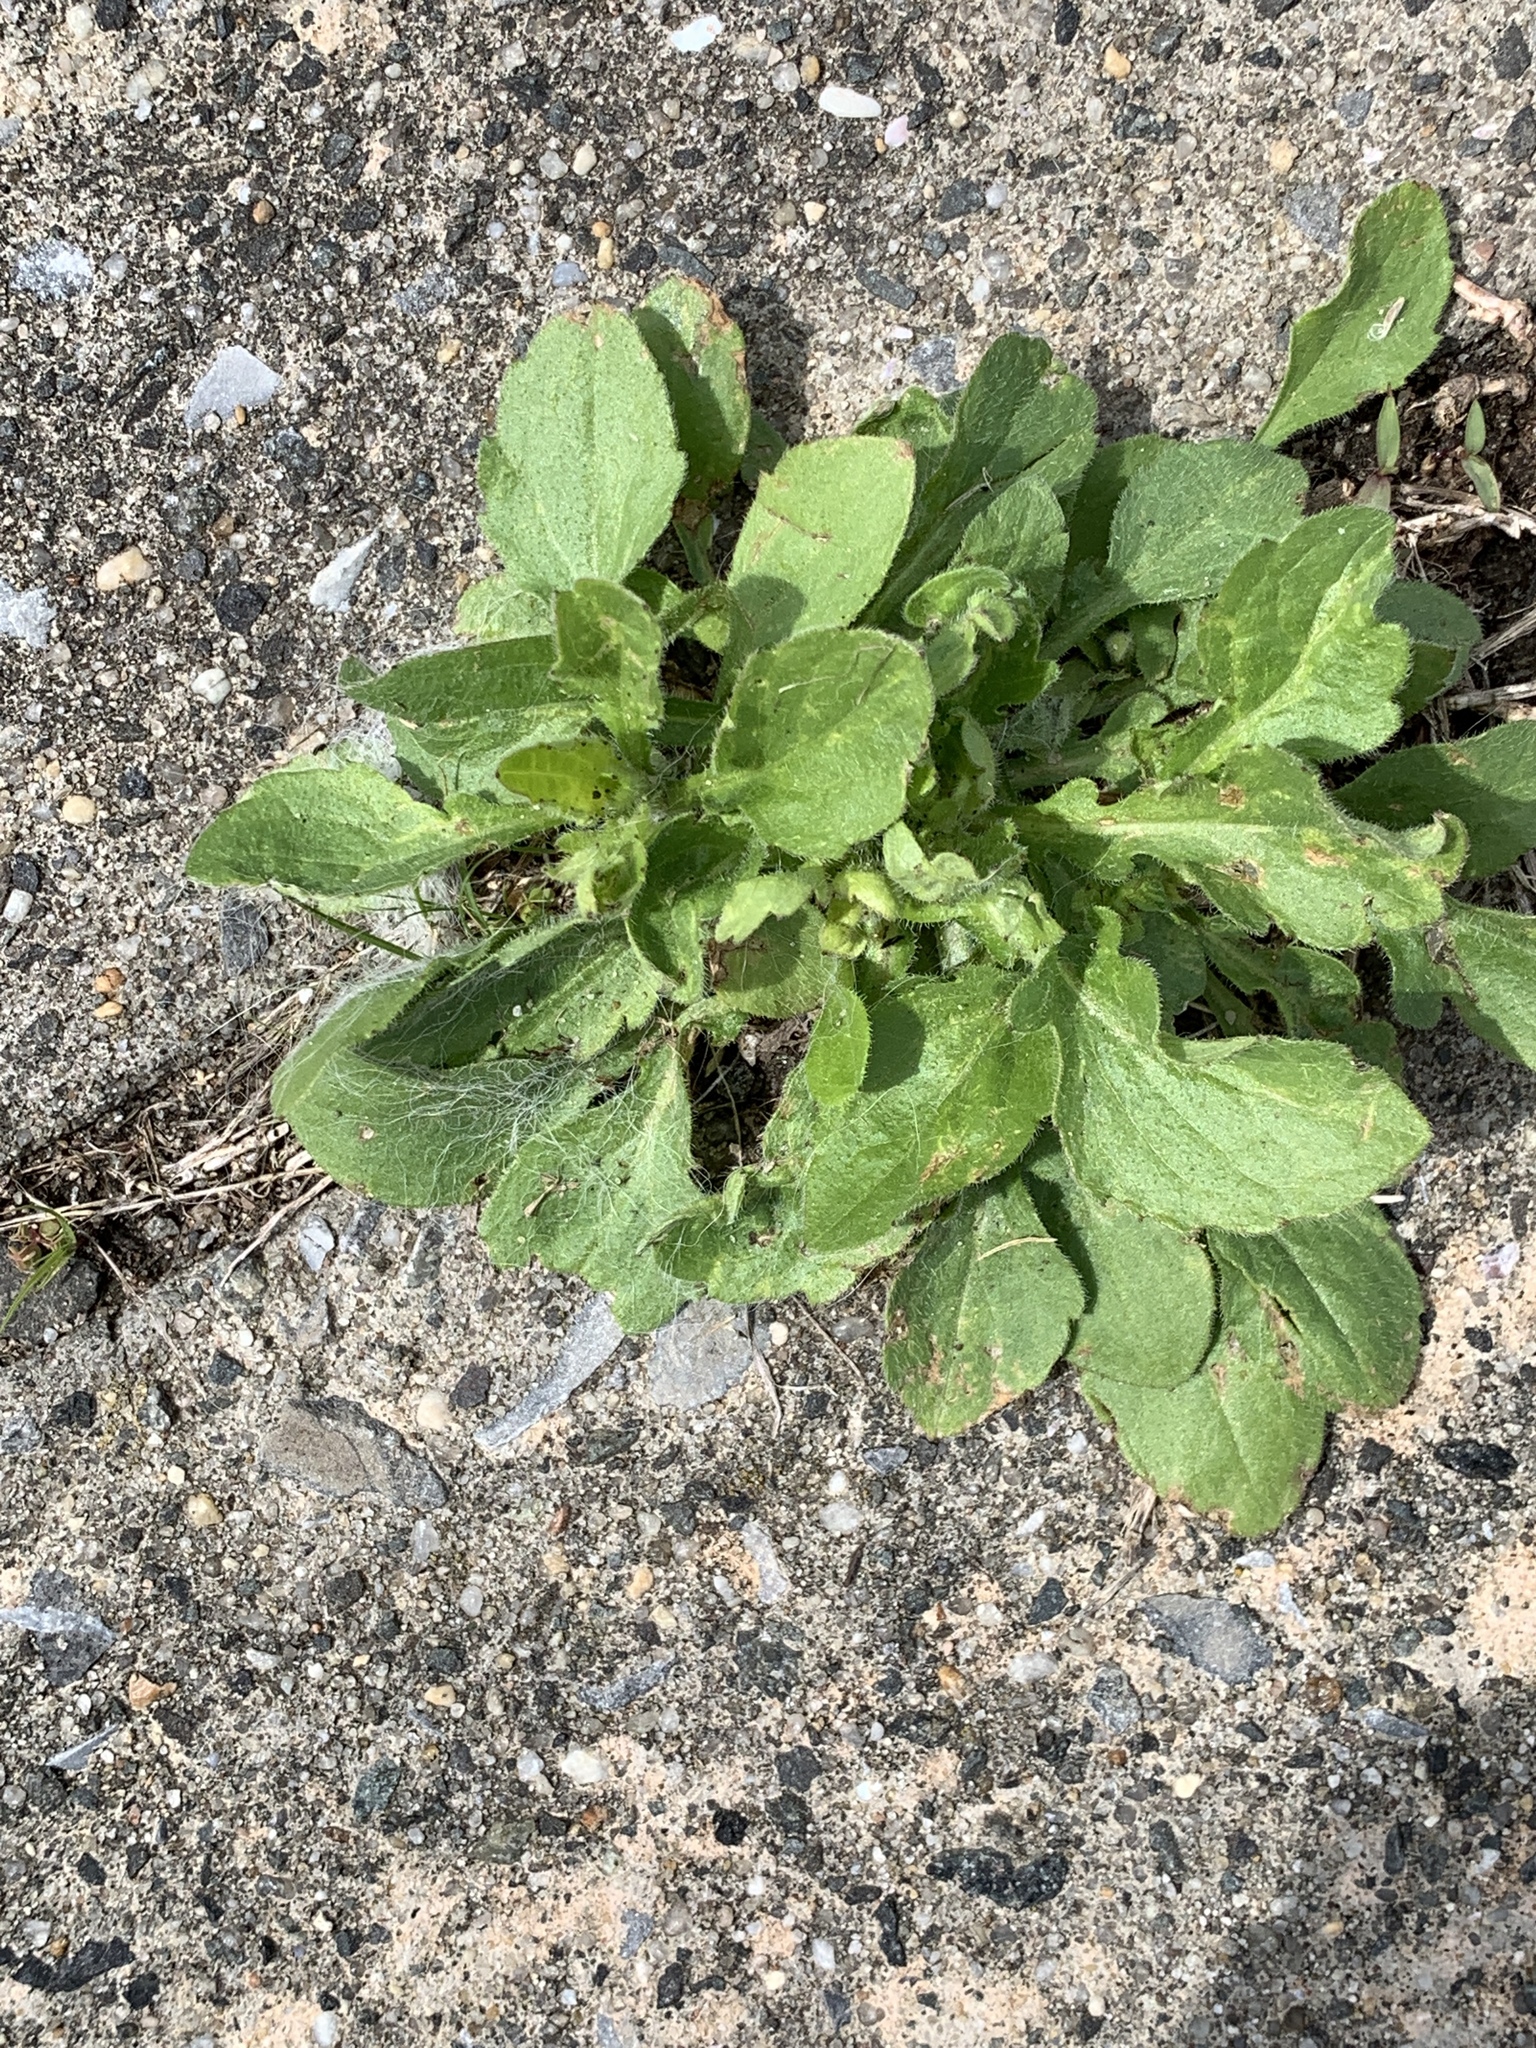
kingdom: Plantae
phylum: Tracheophyta
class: Magnoliopsida
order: Asterales
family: Asteraceae
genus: Erigeron
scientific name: Erigeron canadensis
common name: Canadian fleabane
